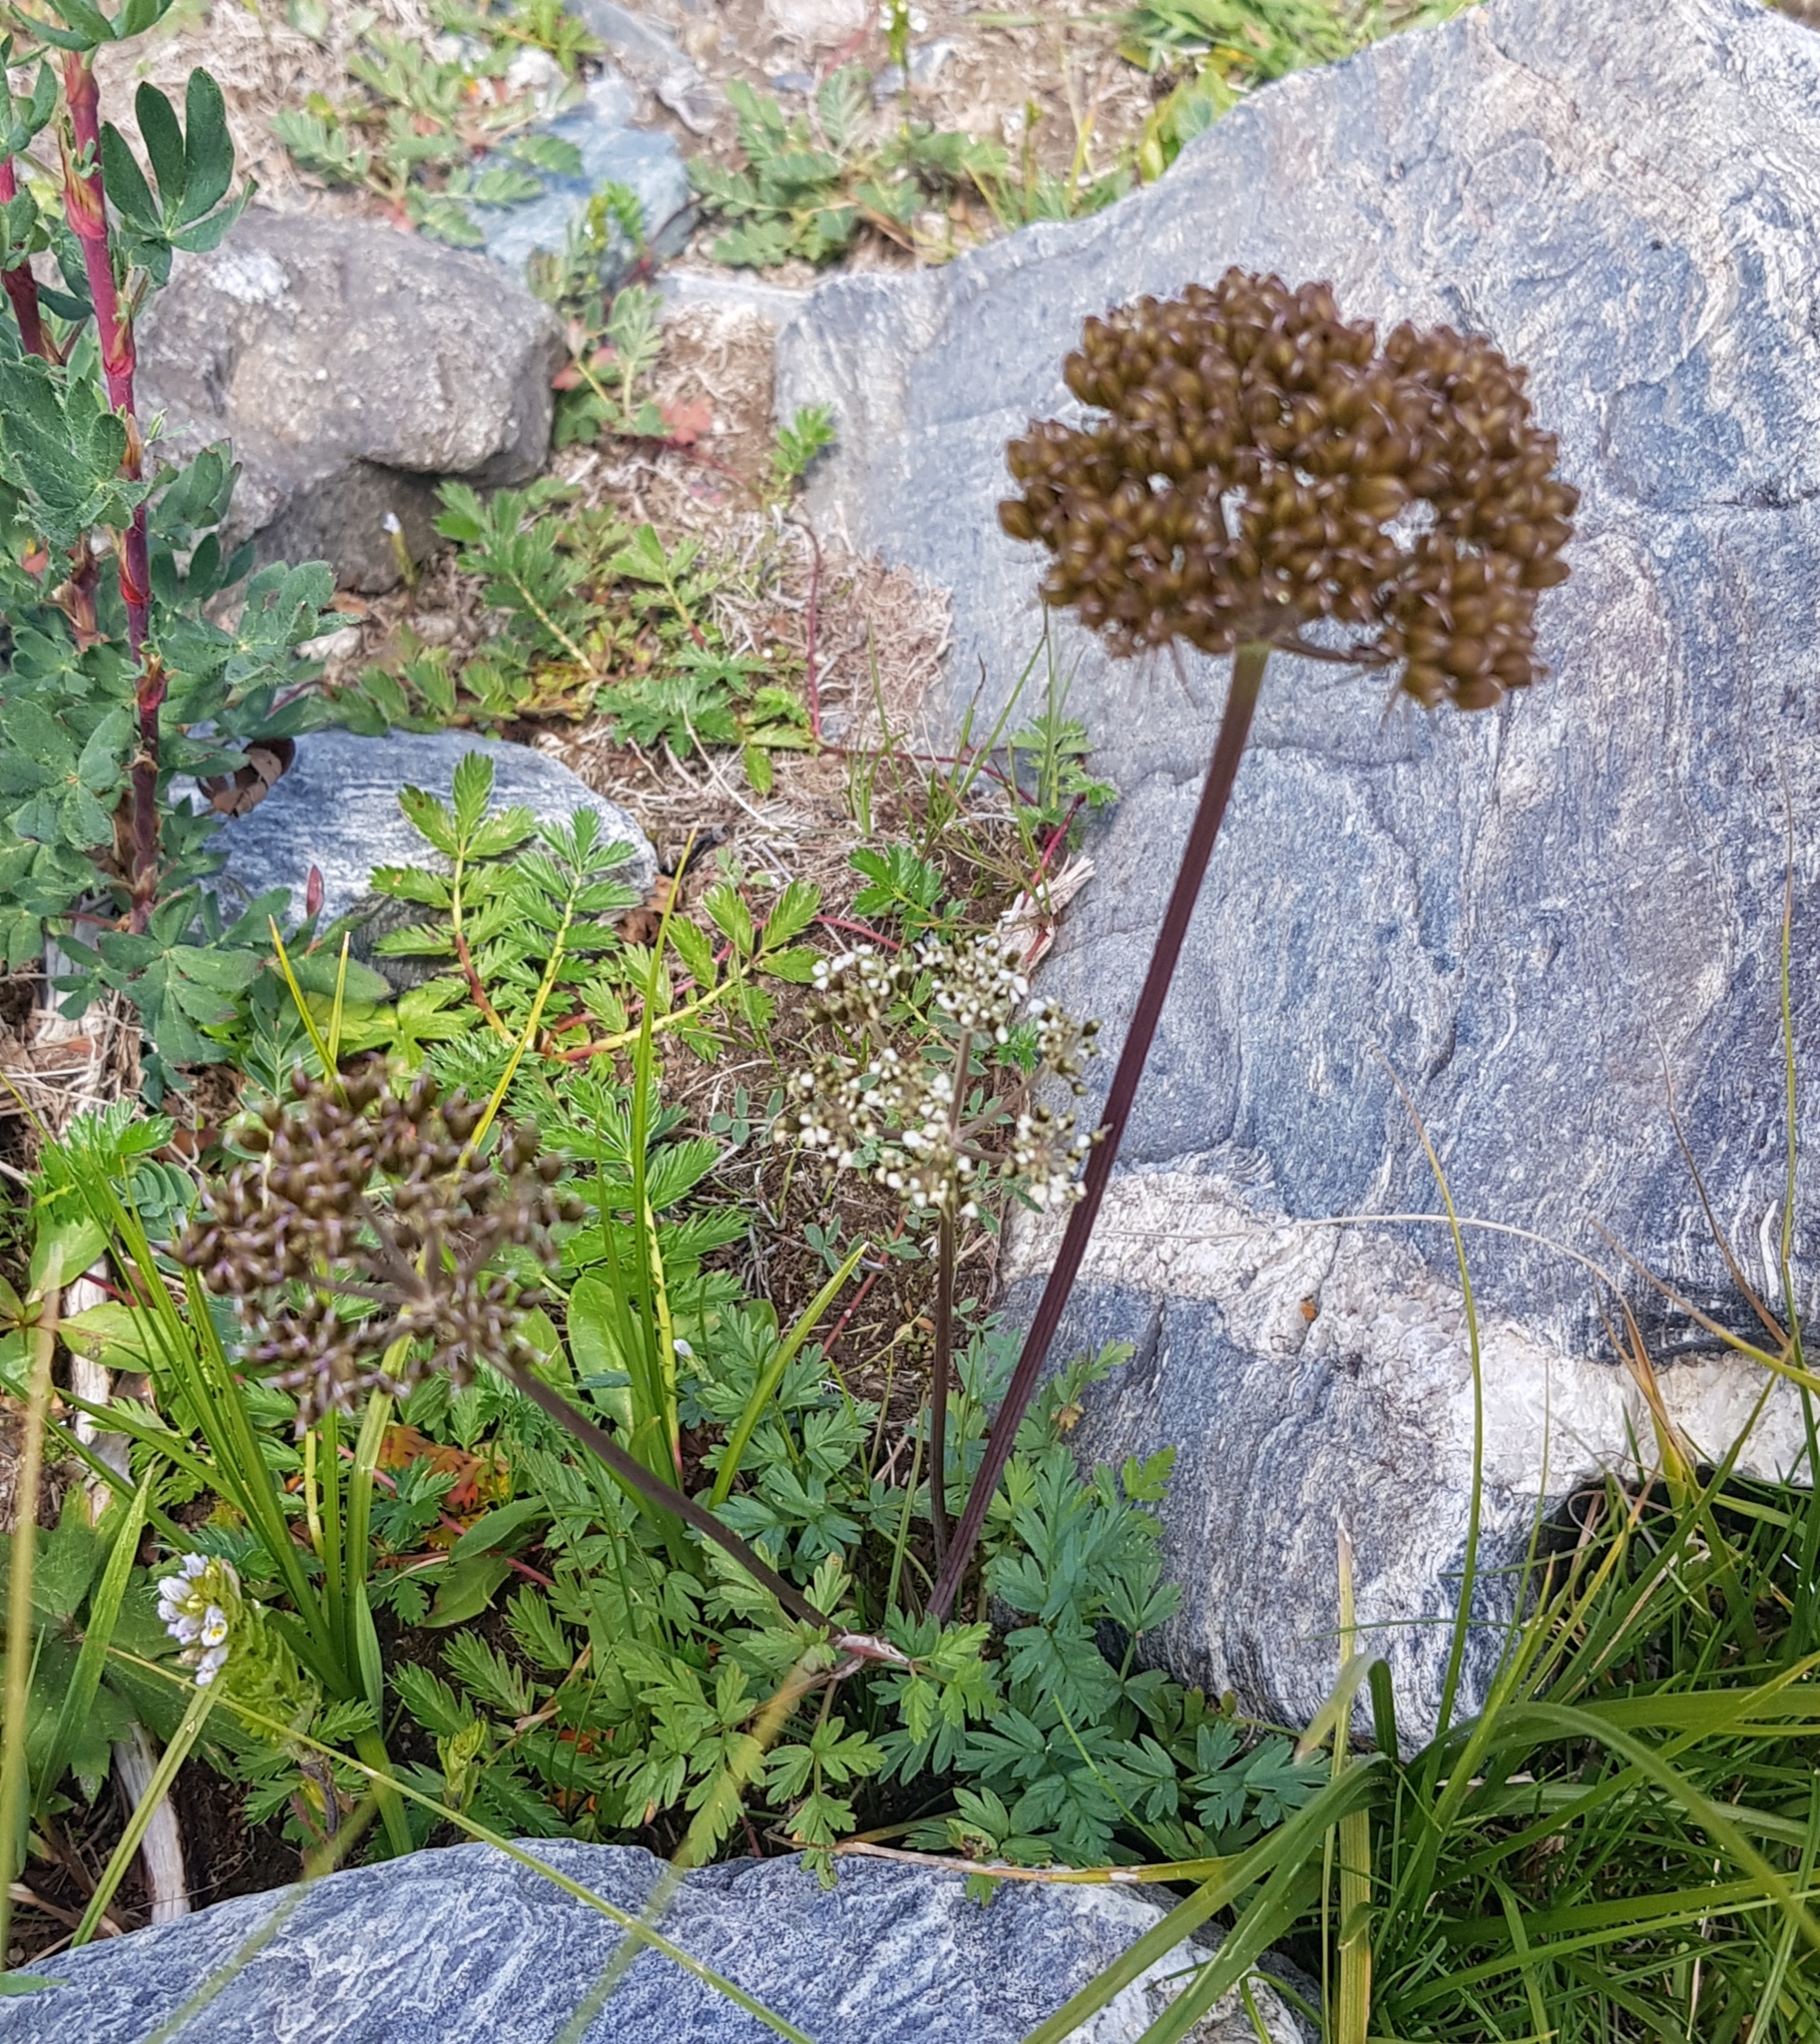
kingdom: Plantae
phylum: Tracheophyta
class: Magnoliopsida
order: Apiales
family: Apiaceae
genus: Conioselinum
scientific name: Conioselinum tataricum
